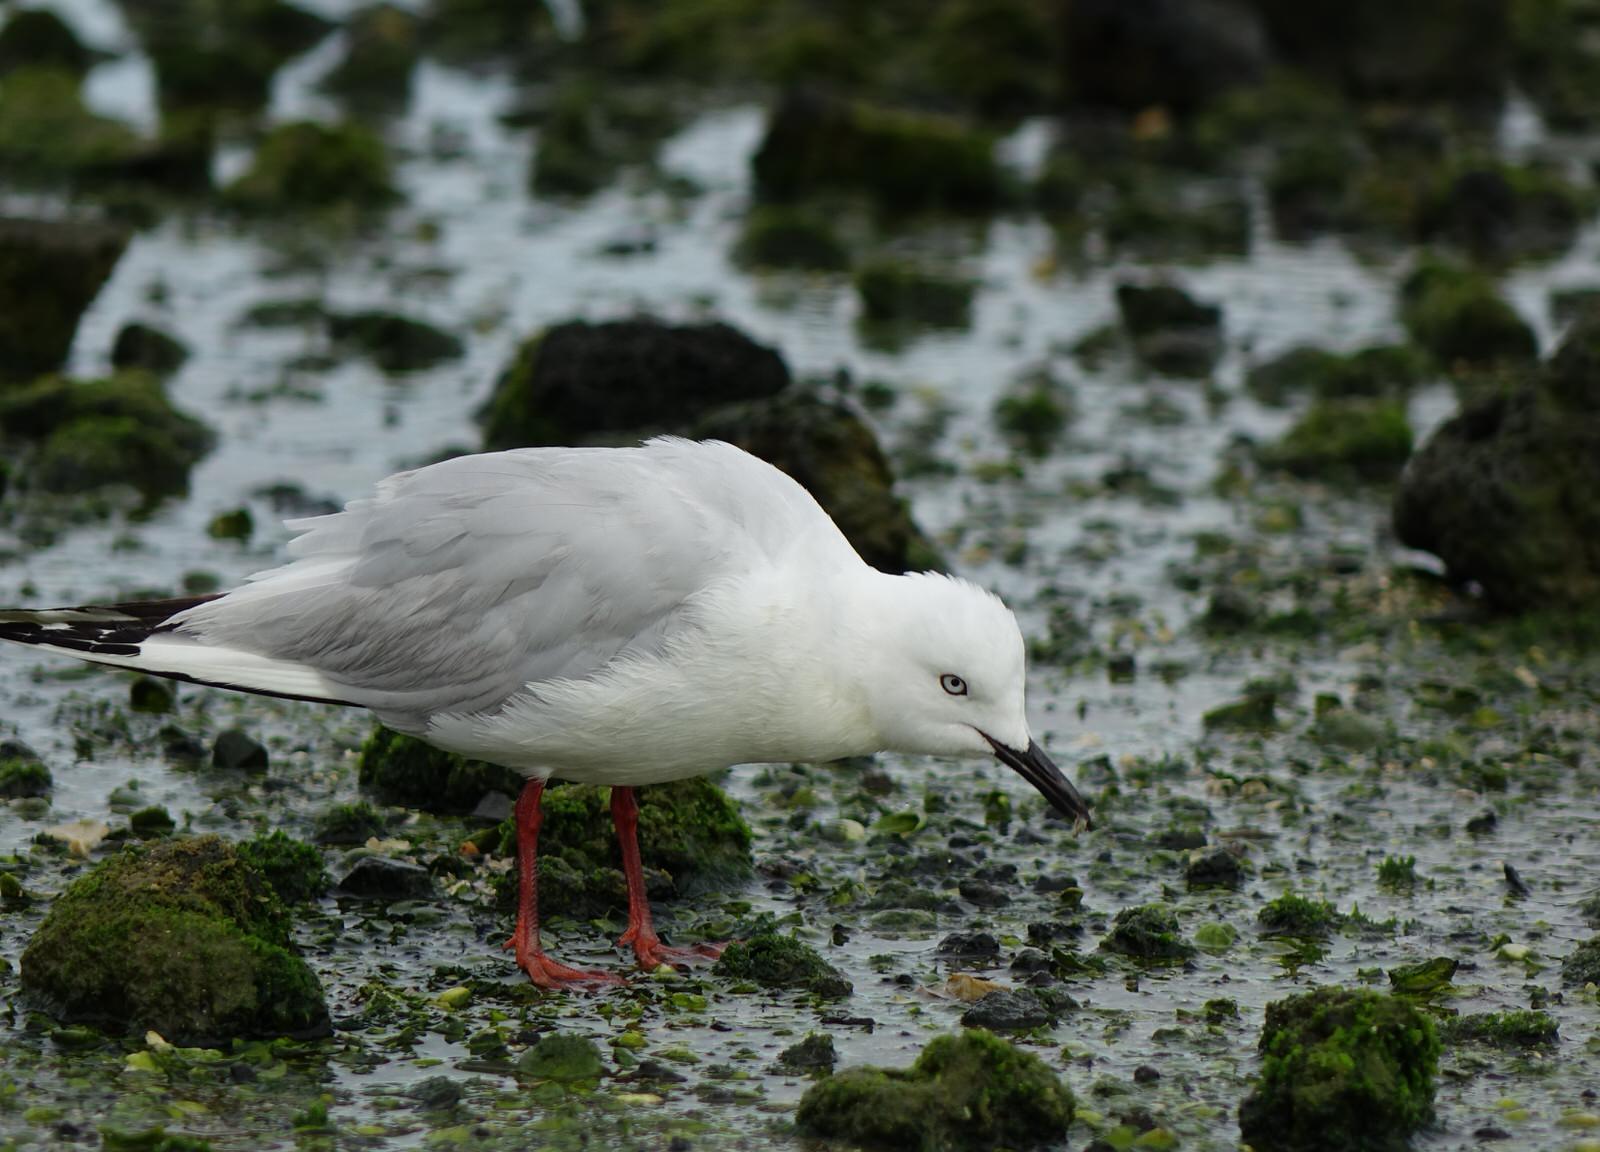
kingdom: Animalia
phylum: Chordata
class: Aves
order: Charadriiformes
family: Laridae
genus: Chroicocephalus
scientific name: Chroicocephalus novaehollandiae
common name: Silver gull
